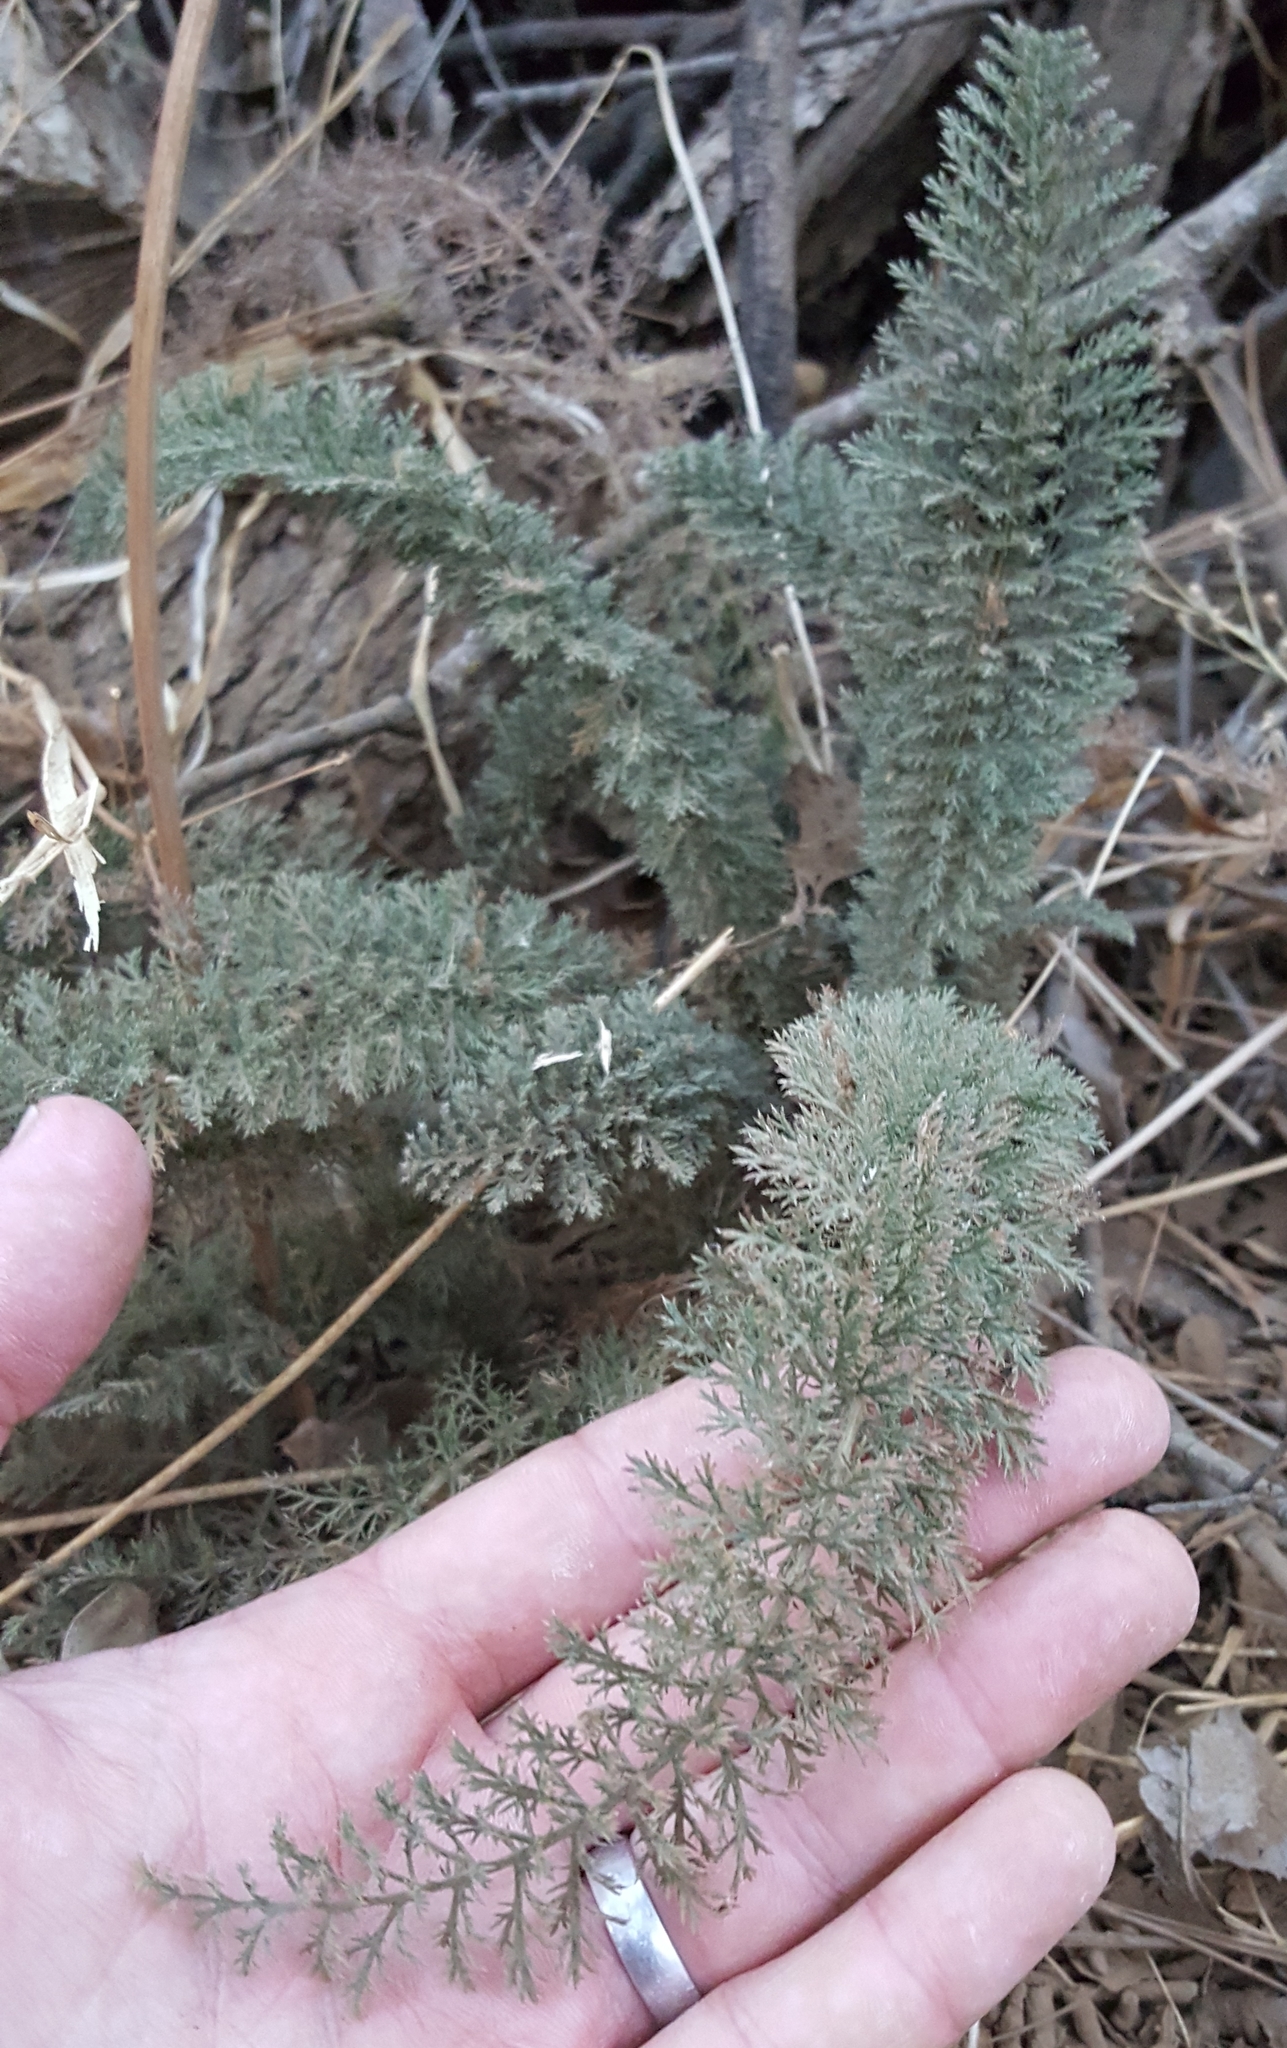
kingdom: Plantae
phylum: Tracheophyta
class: Magnoliopsida
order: Asterales
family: Asteraceae
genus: Achillea
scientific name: Achillea millefolium
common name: Yarrow
